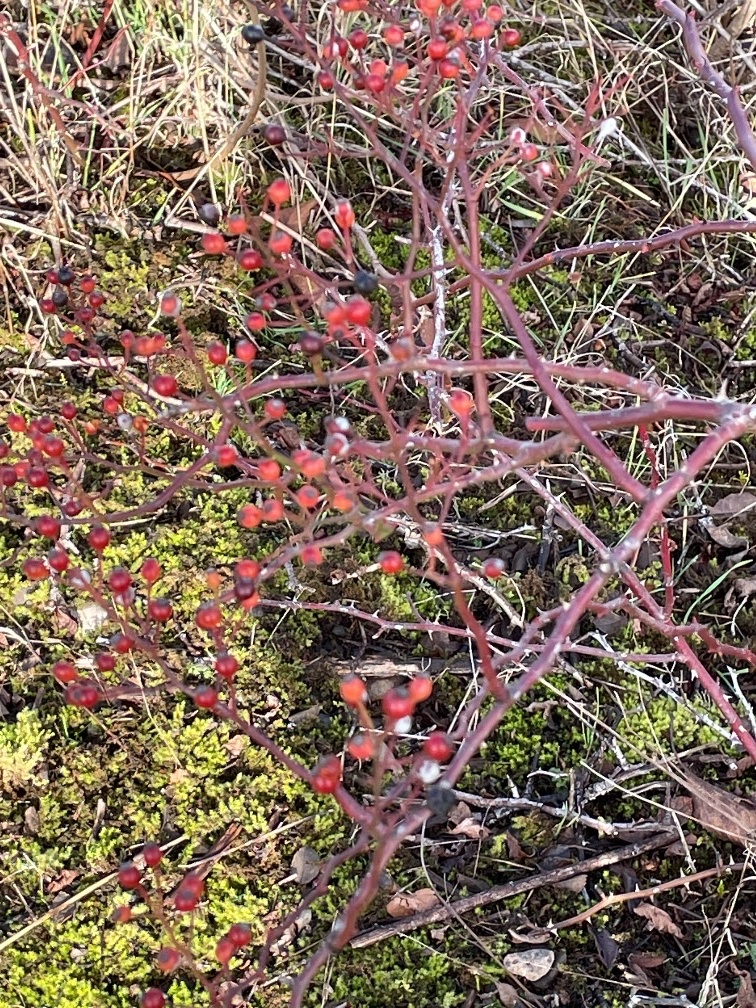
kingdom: Plantae
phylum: Tracheophyta
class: Magnoliopsida
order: Rosales
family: Rosaceae
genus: Rosa
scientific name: Rosa multiflora
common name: Multiflora rose
